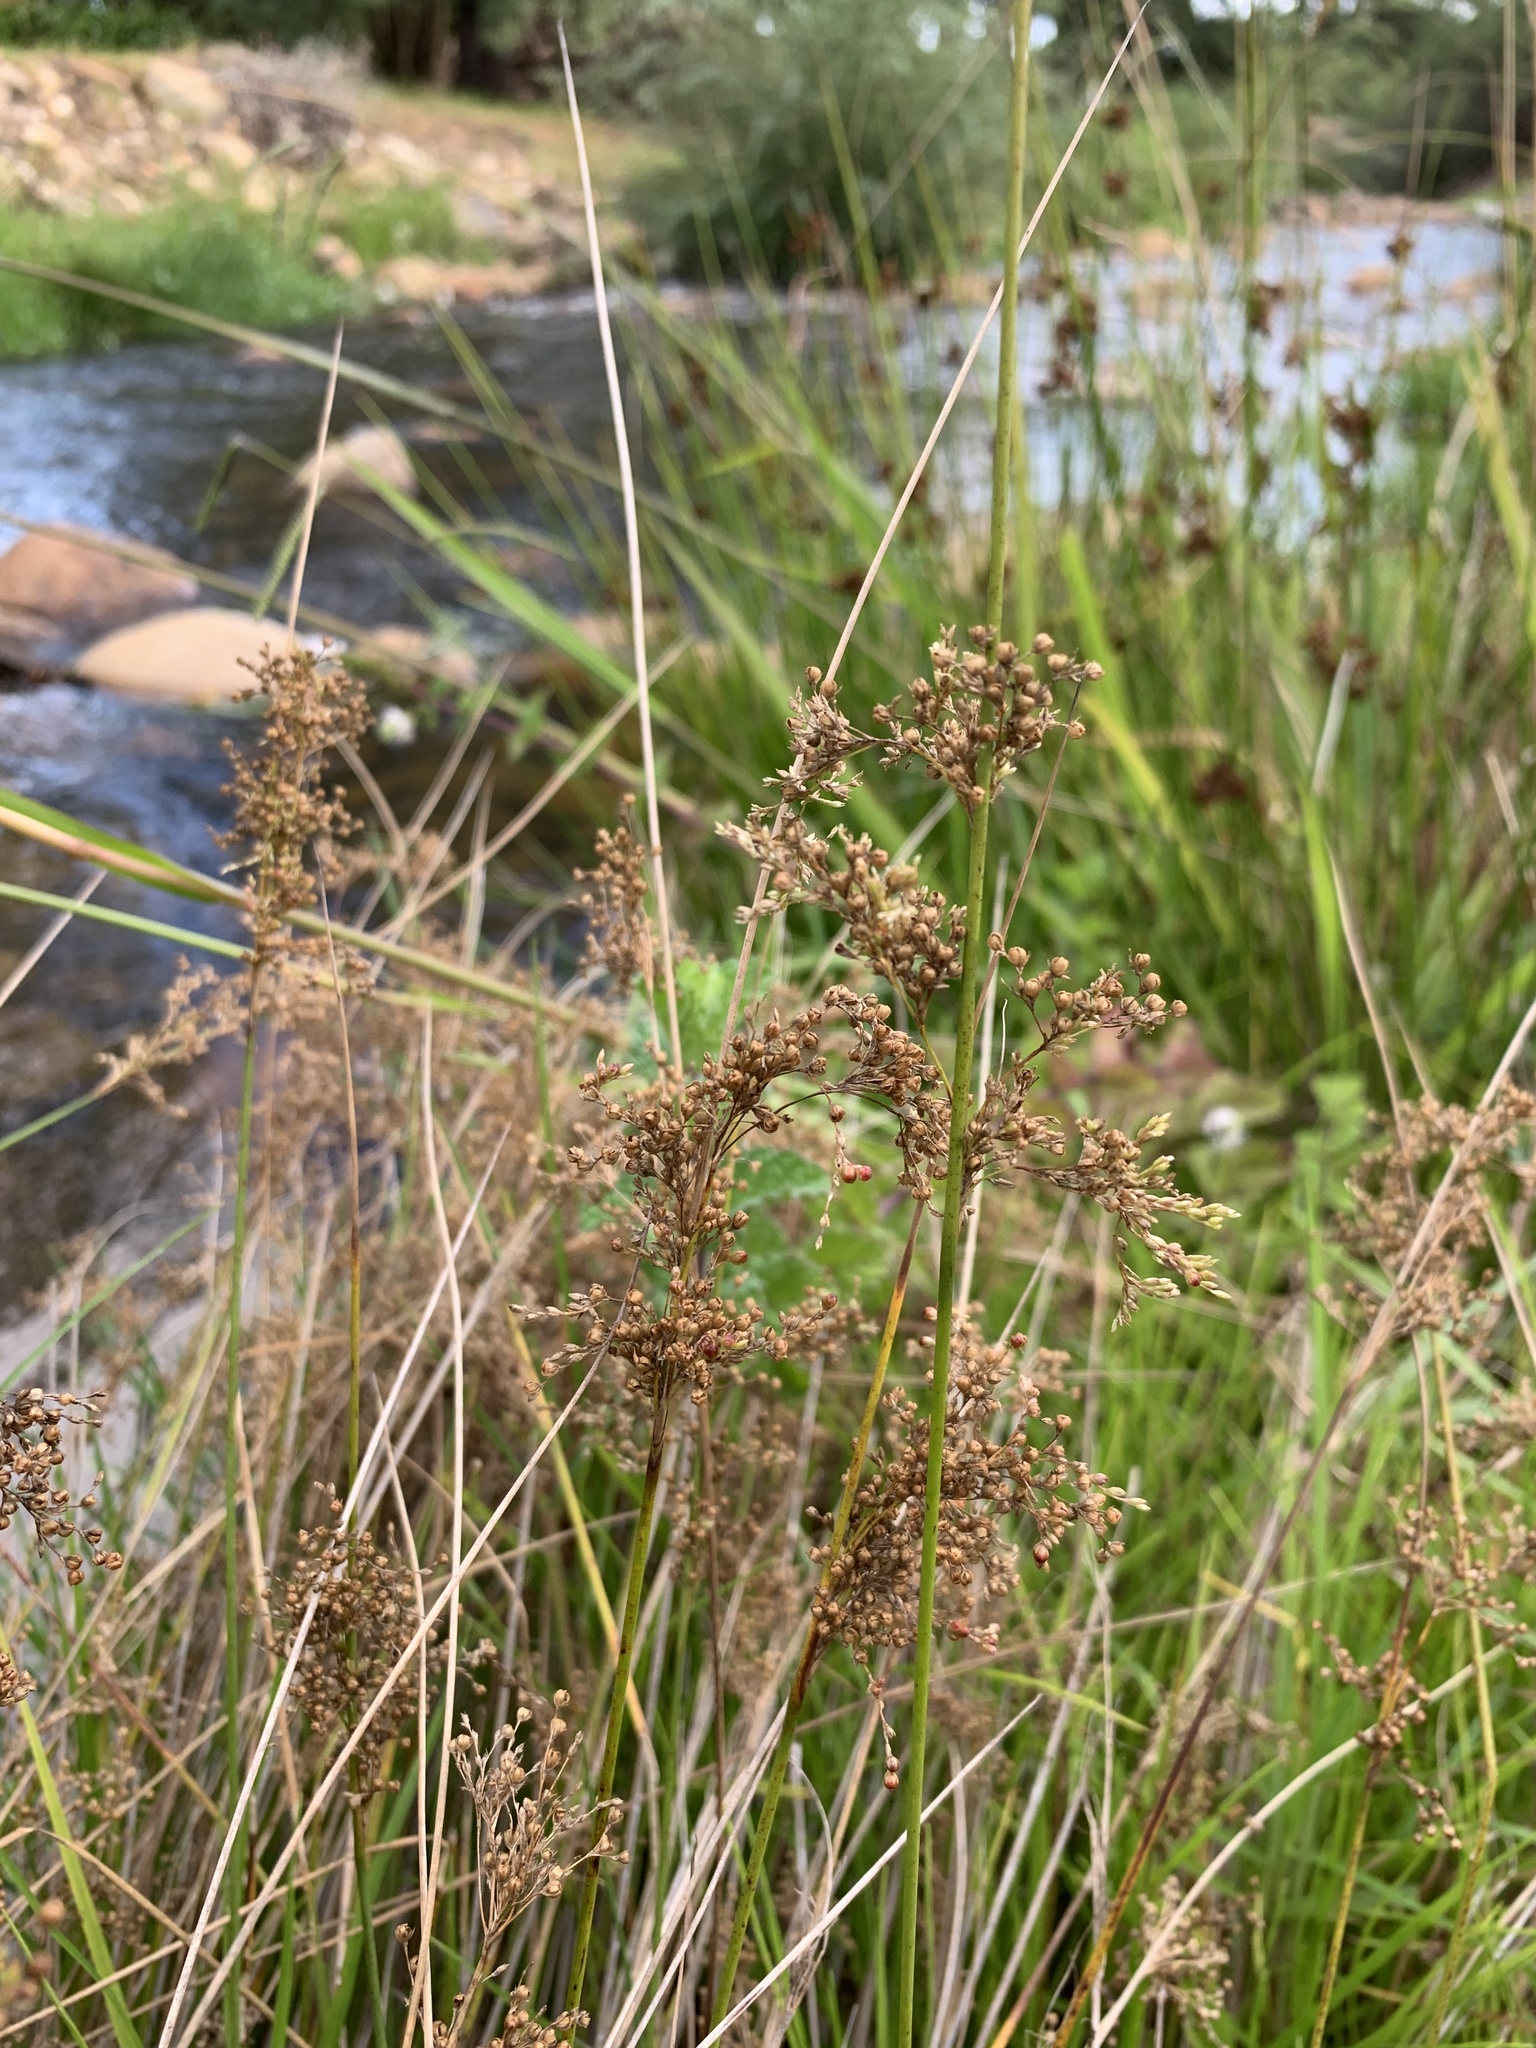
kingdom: Plantae
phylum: Tracheophyta
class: Liliopsida
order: Poales
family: Juncaceae
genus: Juncus
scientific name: Juncus effusus
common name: Soft rush
